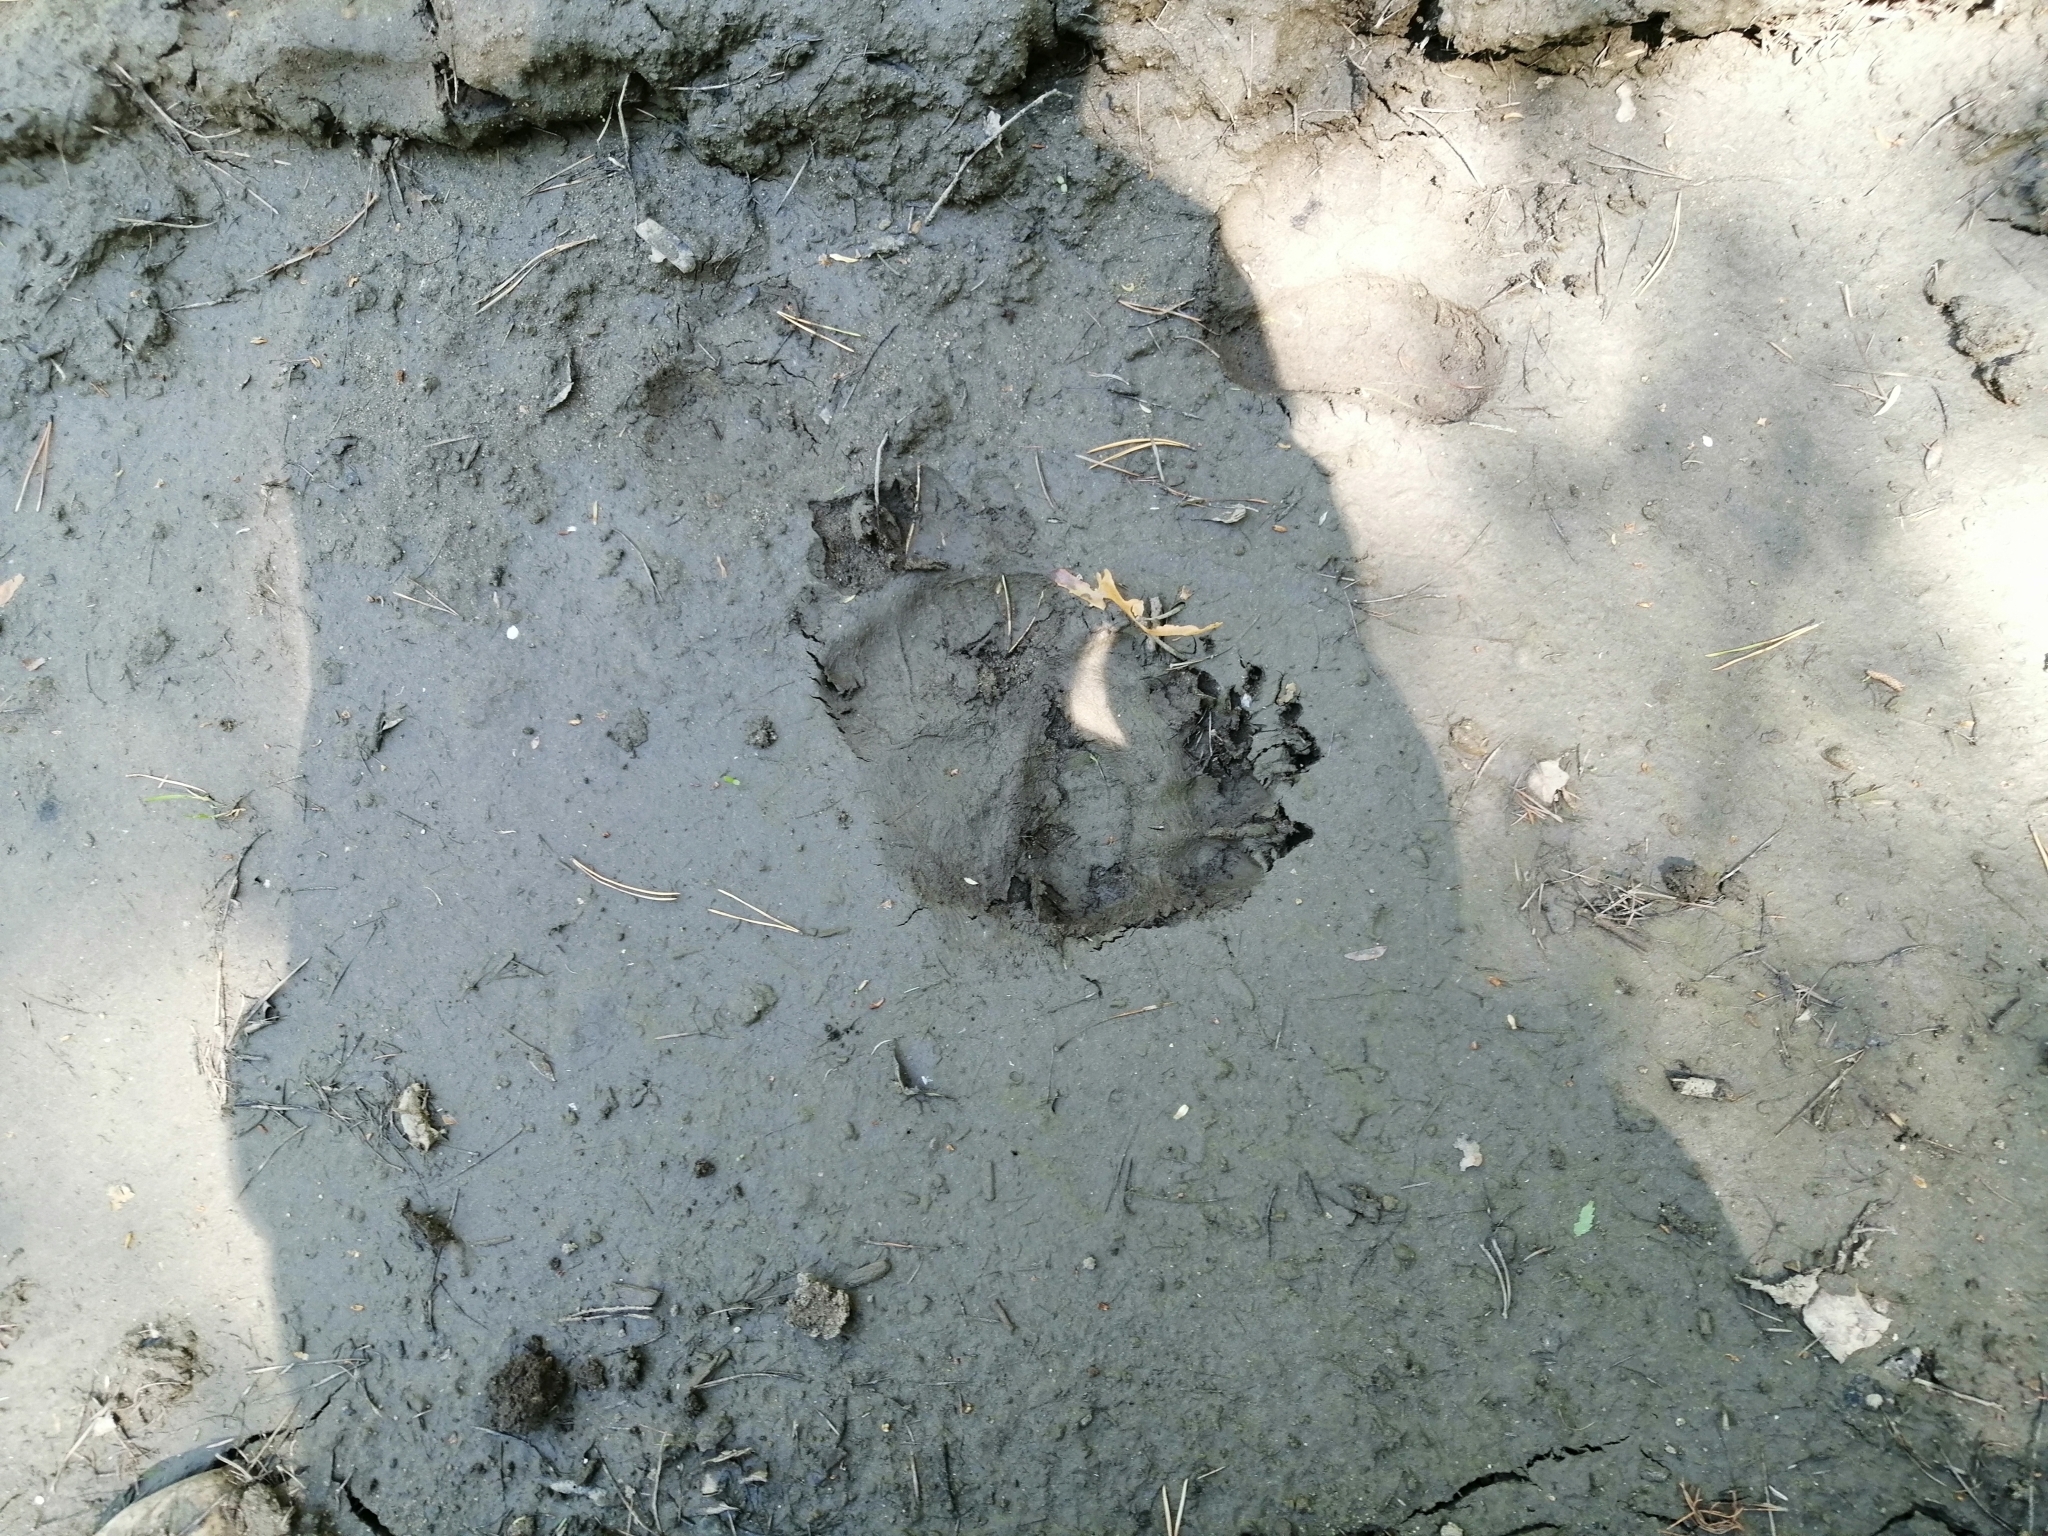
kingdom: Animalia
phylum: Chordata
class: Mammalia
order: Carnivora
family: Ursidae
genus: Ursus
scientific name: Ursus arctos
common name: Brown bear
